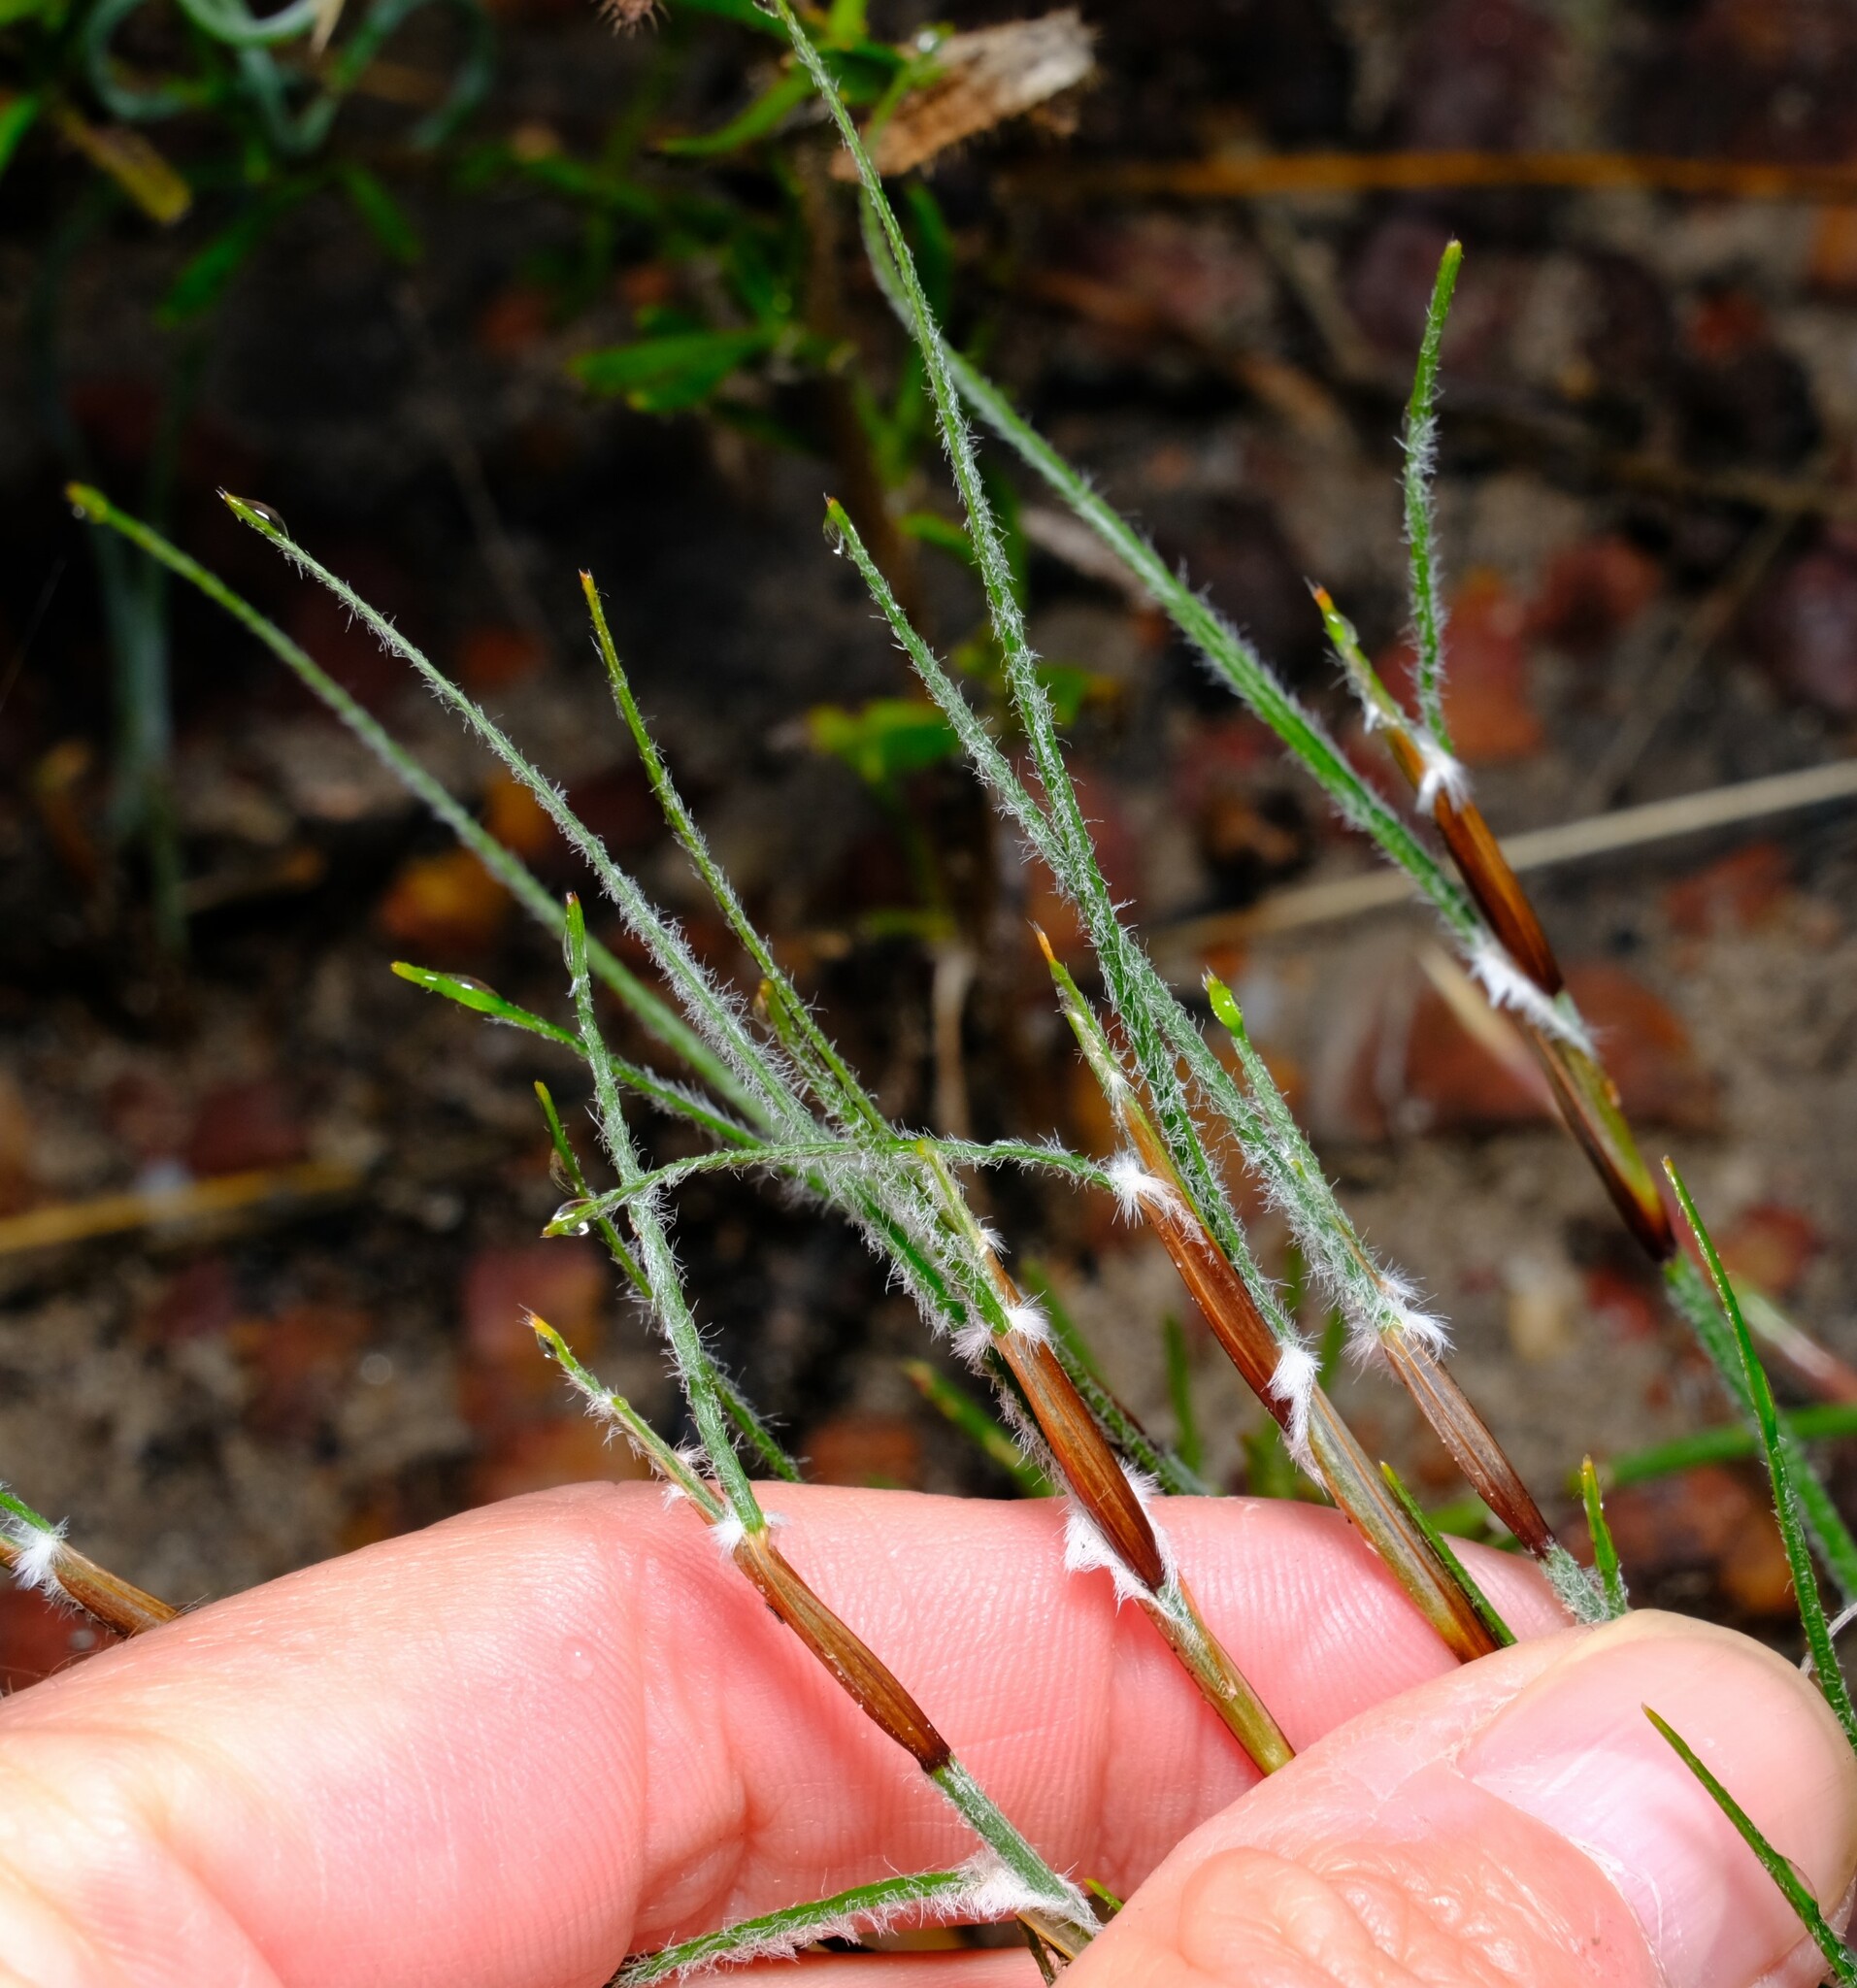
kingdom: Plantae
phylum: Tracheophyta
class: Liliopsida
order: Poales
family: Cyperaceae
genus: Schoenus
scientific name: Schoenus griffinianus
